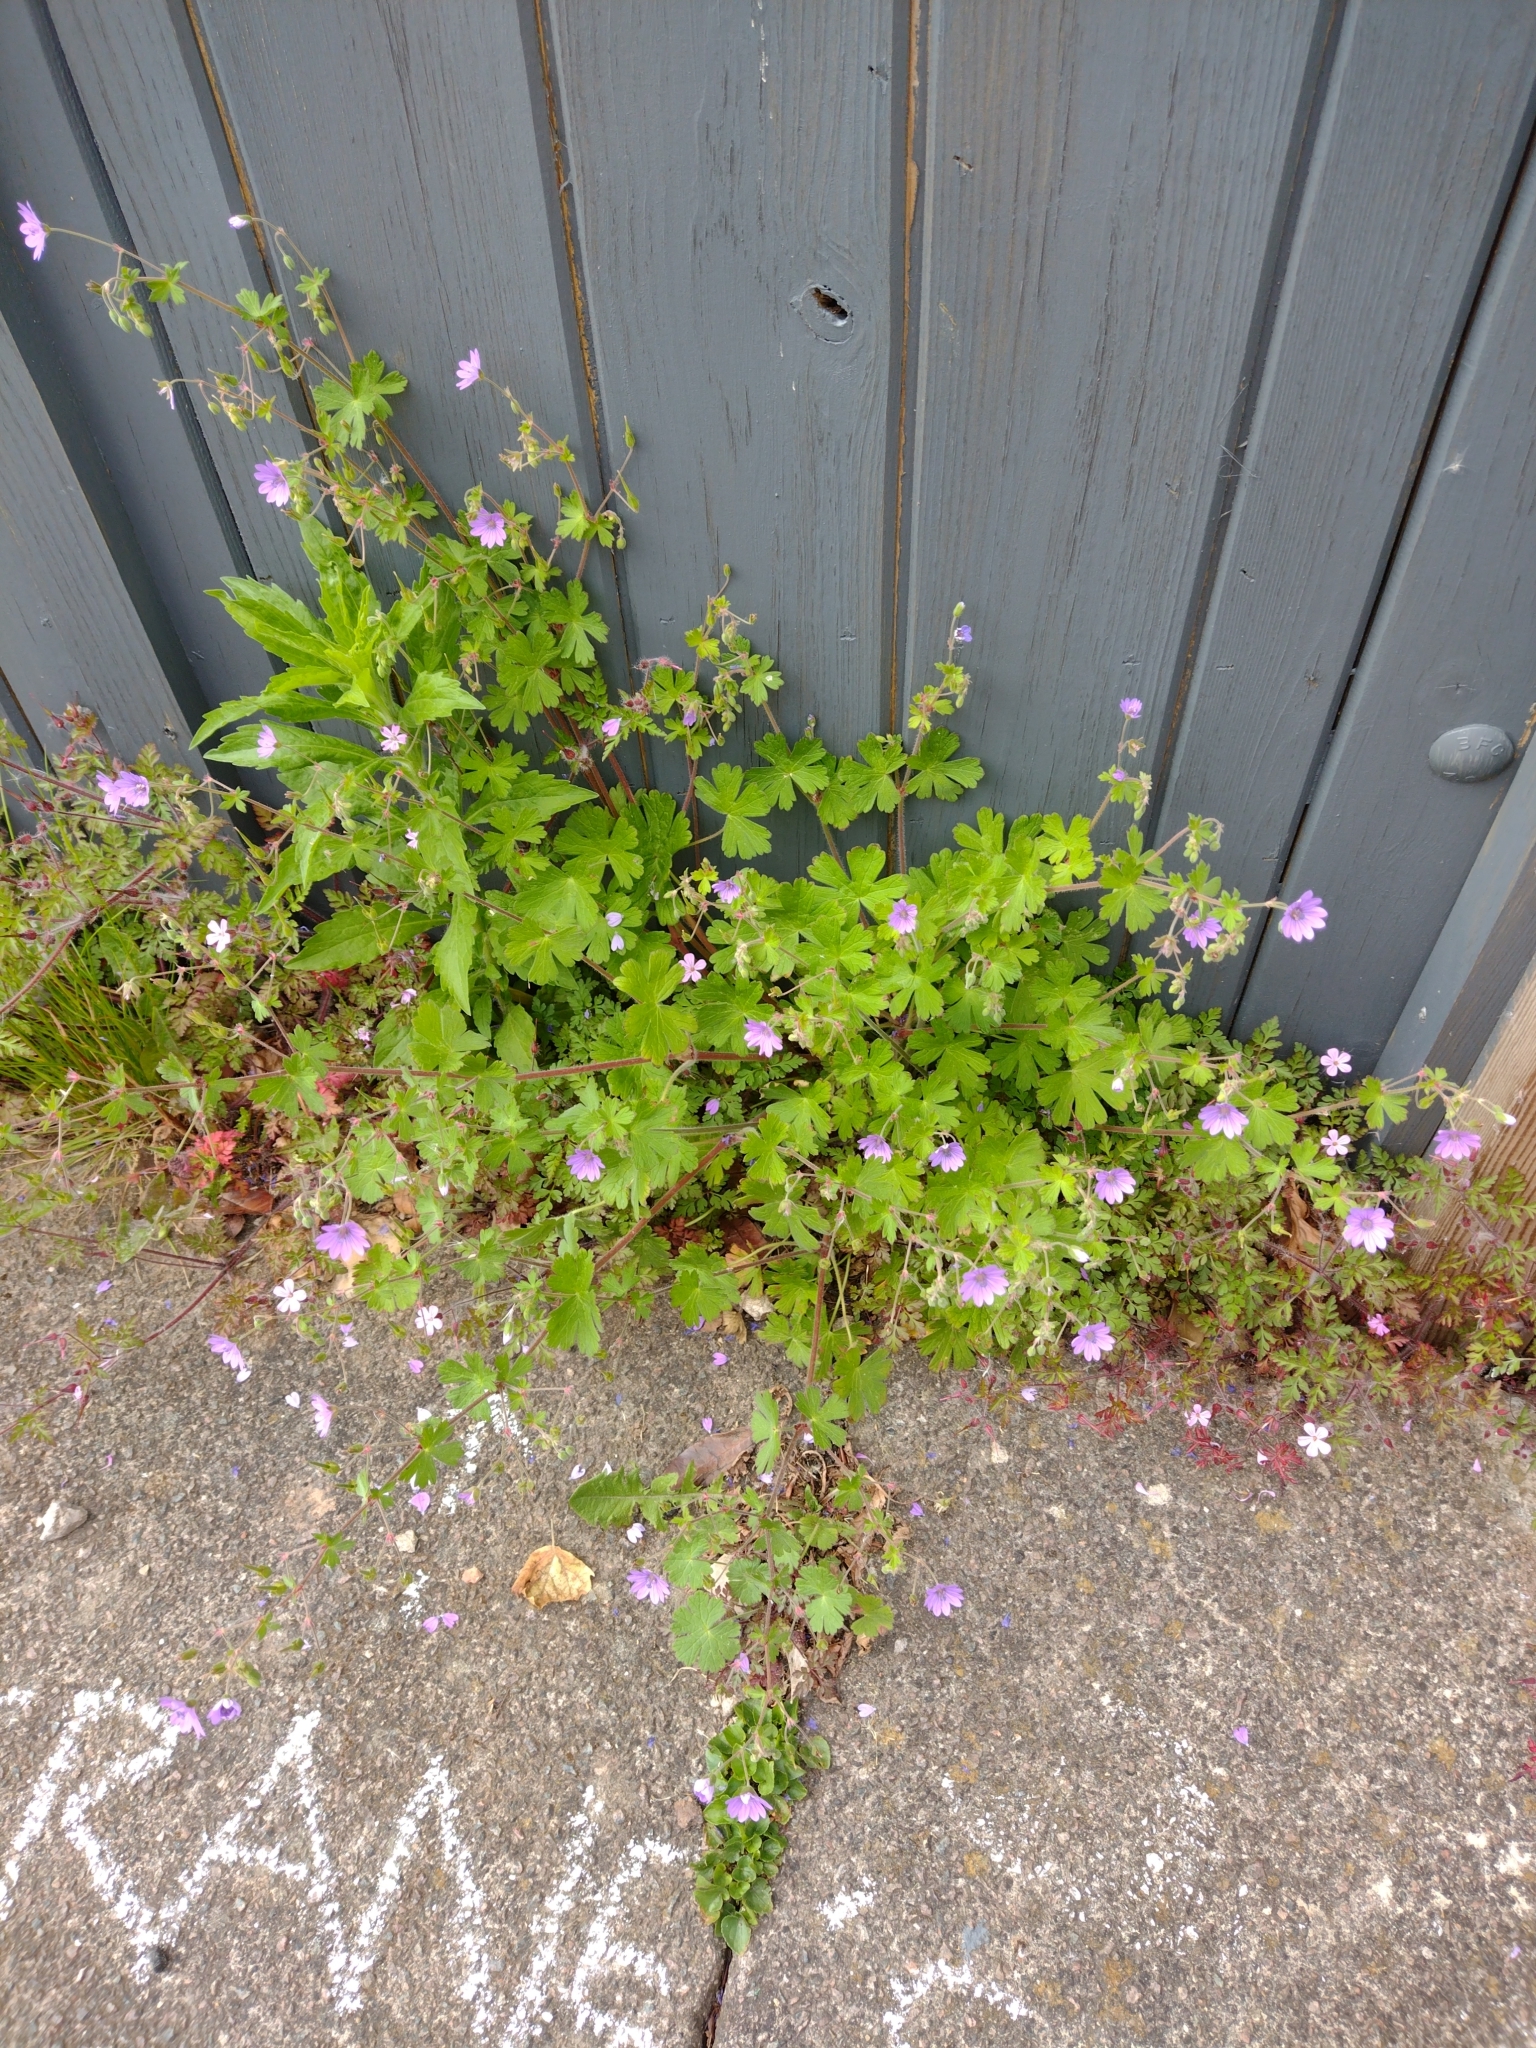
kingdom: Plantae
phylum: Tracheophyta
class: Magnoliopsida
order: Geraniales
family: Geraniaceae
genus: Geranium
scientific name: Geranium pyrenaicum
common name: Hedgerow crane's-bill
